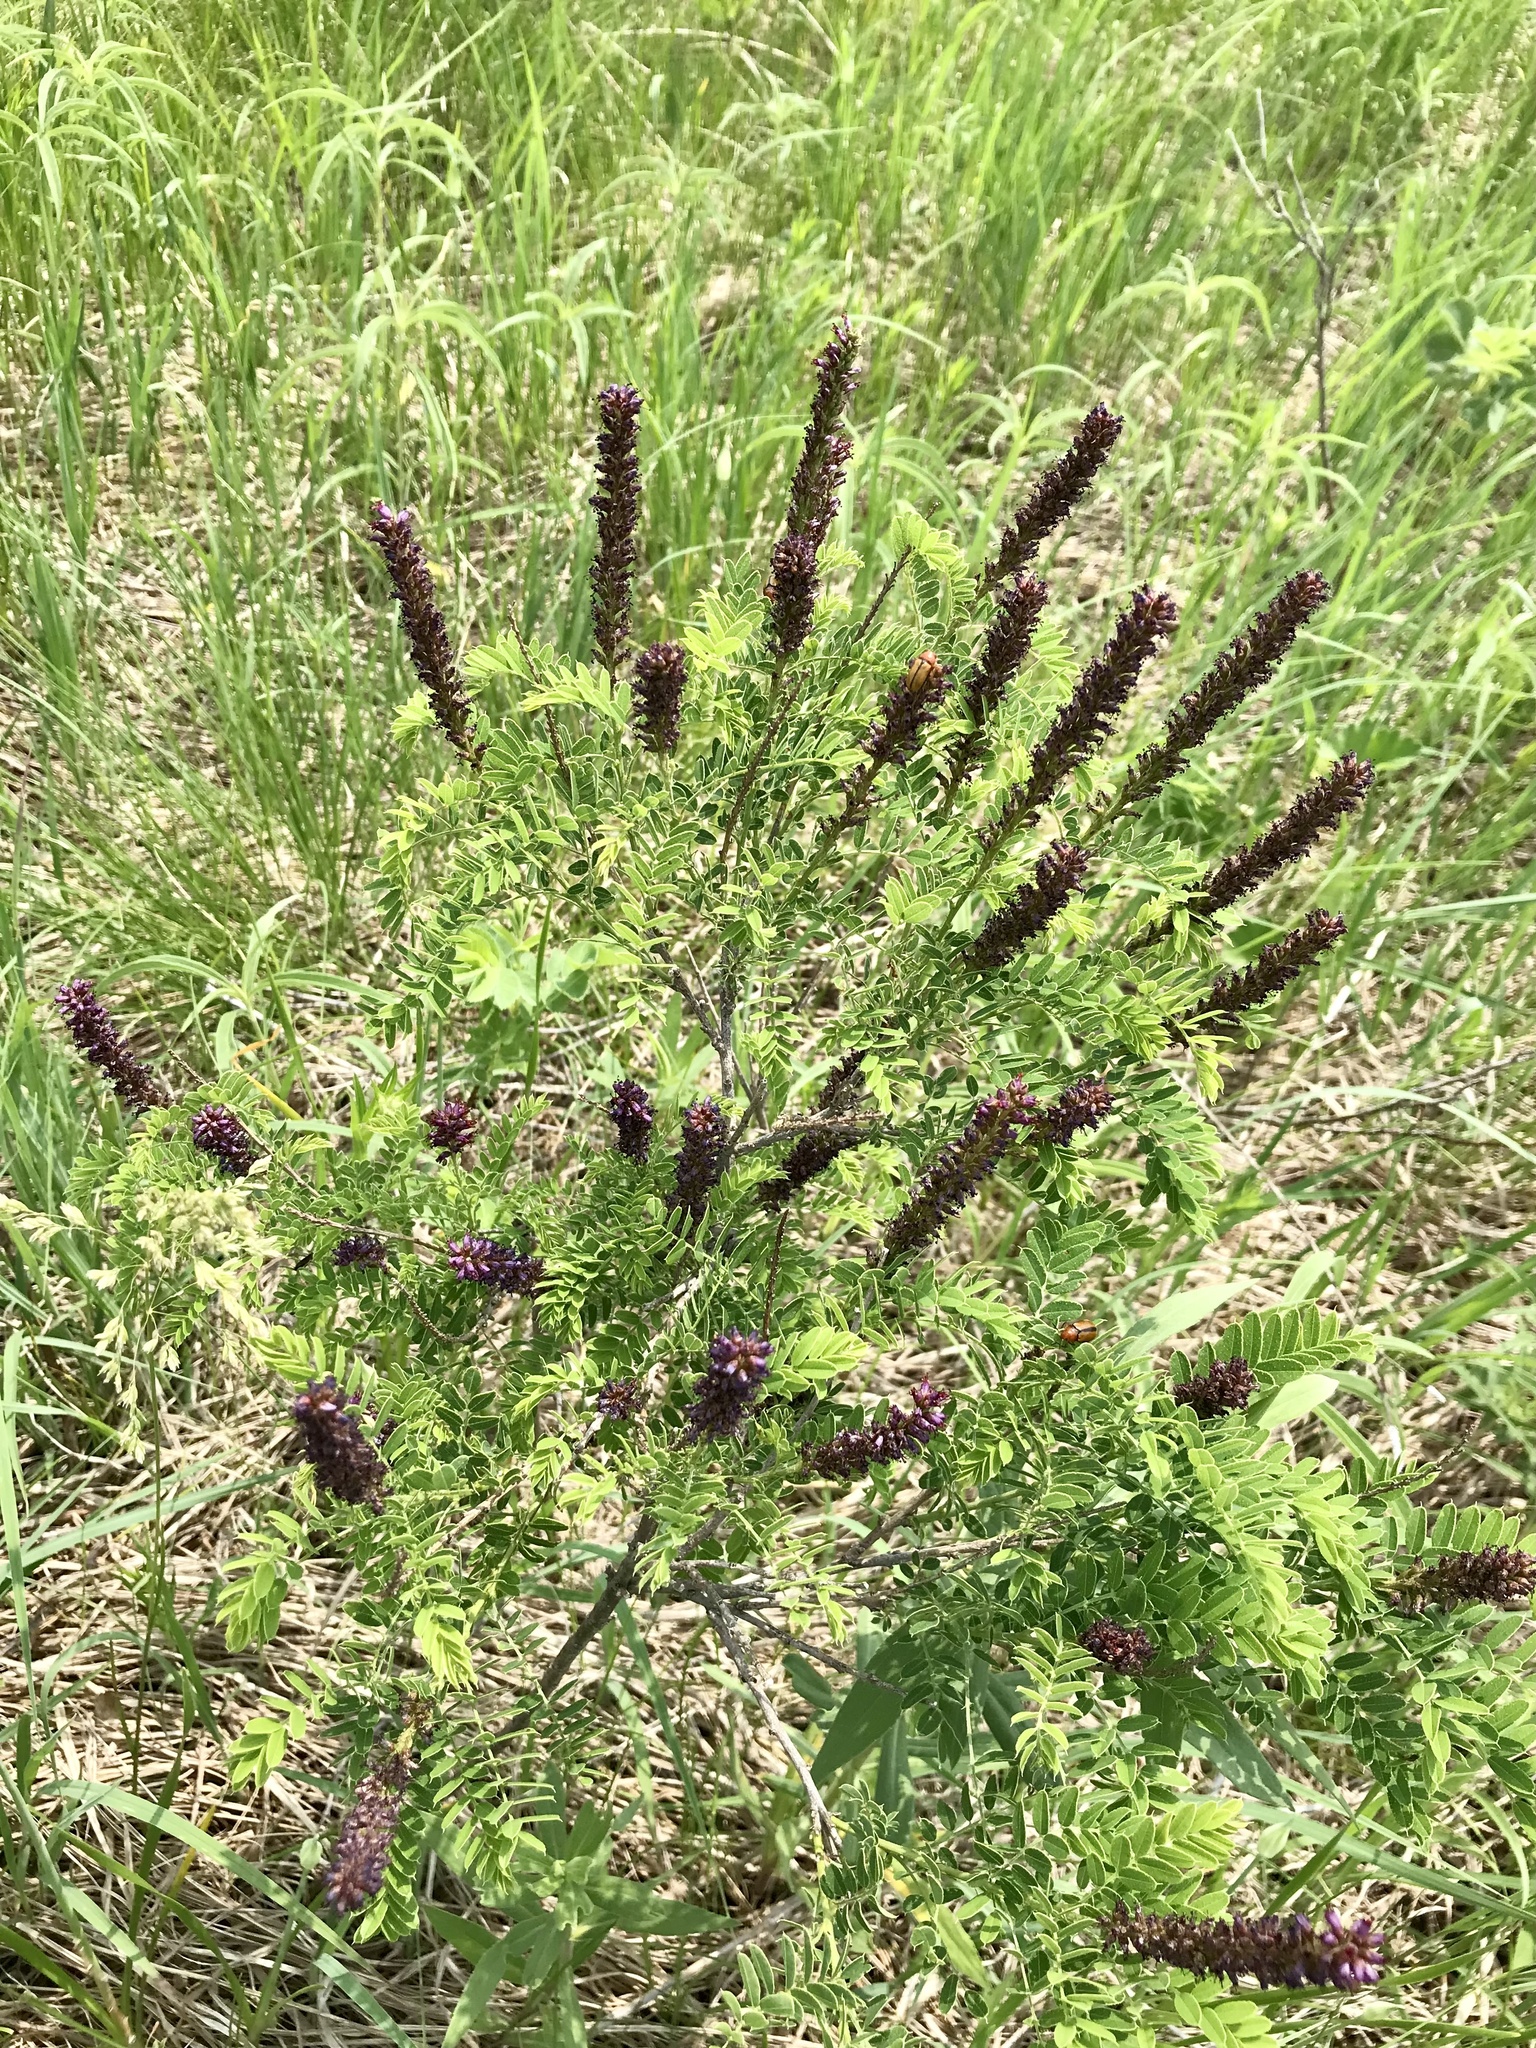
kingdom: Plantae
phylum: Tracheophyta
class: Magnoliopsida
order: Fabales
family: Fabaceae
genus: Amorpha
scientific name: Amorpha nana
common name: Fragrant false indigo
